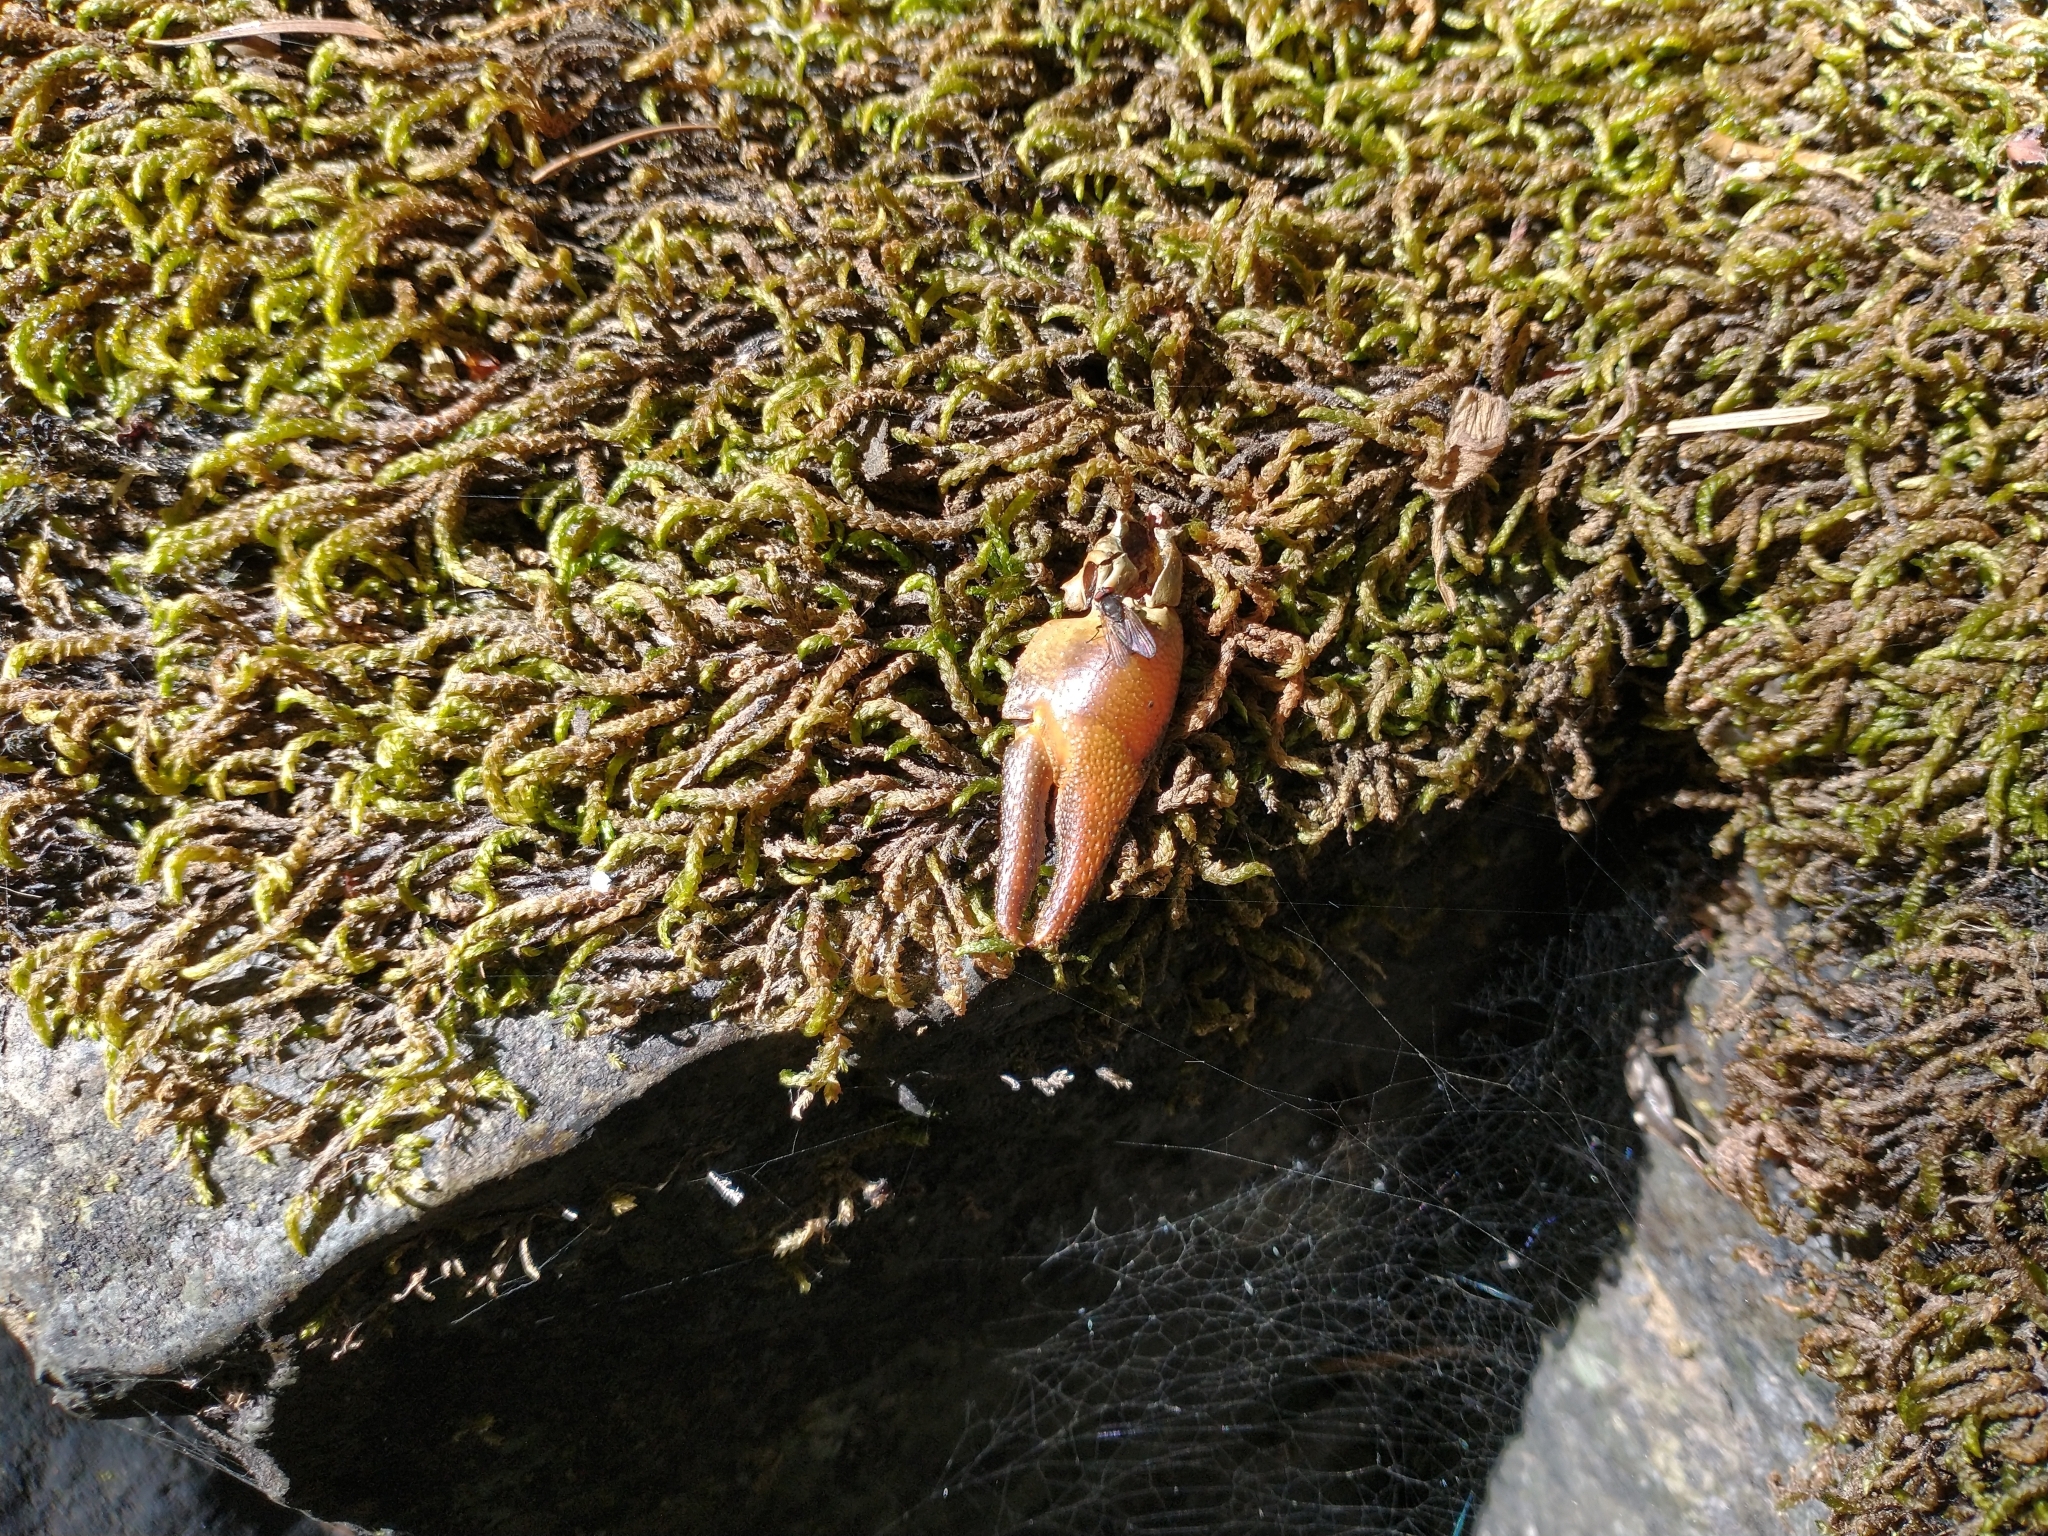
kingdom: Animalia
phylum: Arthropoda
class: Malacostraca
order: Decapoda
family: Astacidae
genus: Pacifastacus
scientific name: Pacifastacus leniusculus
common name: Signal crayfish
